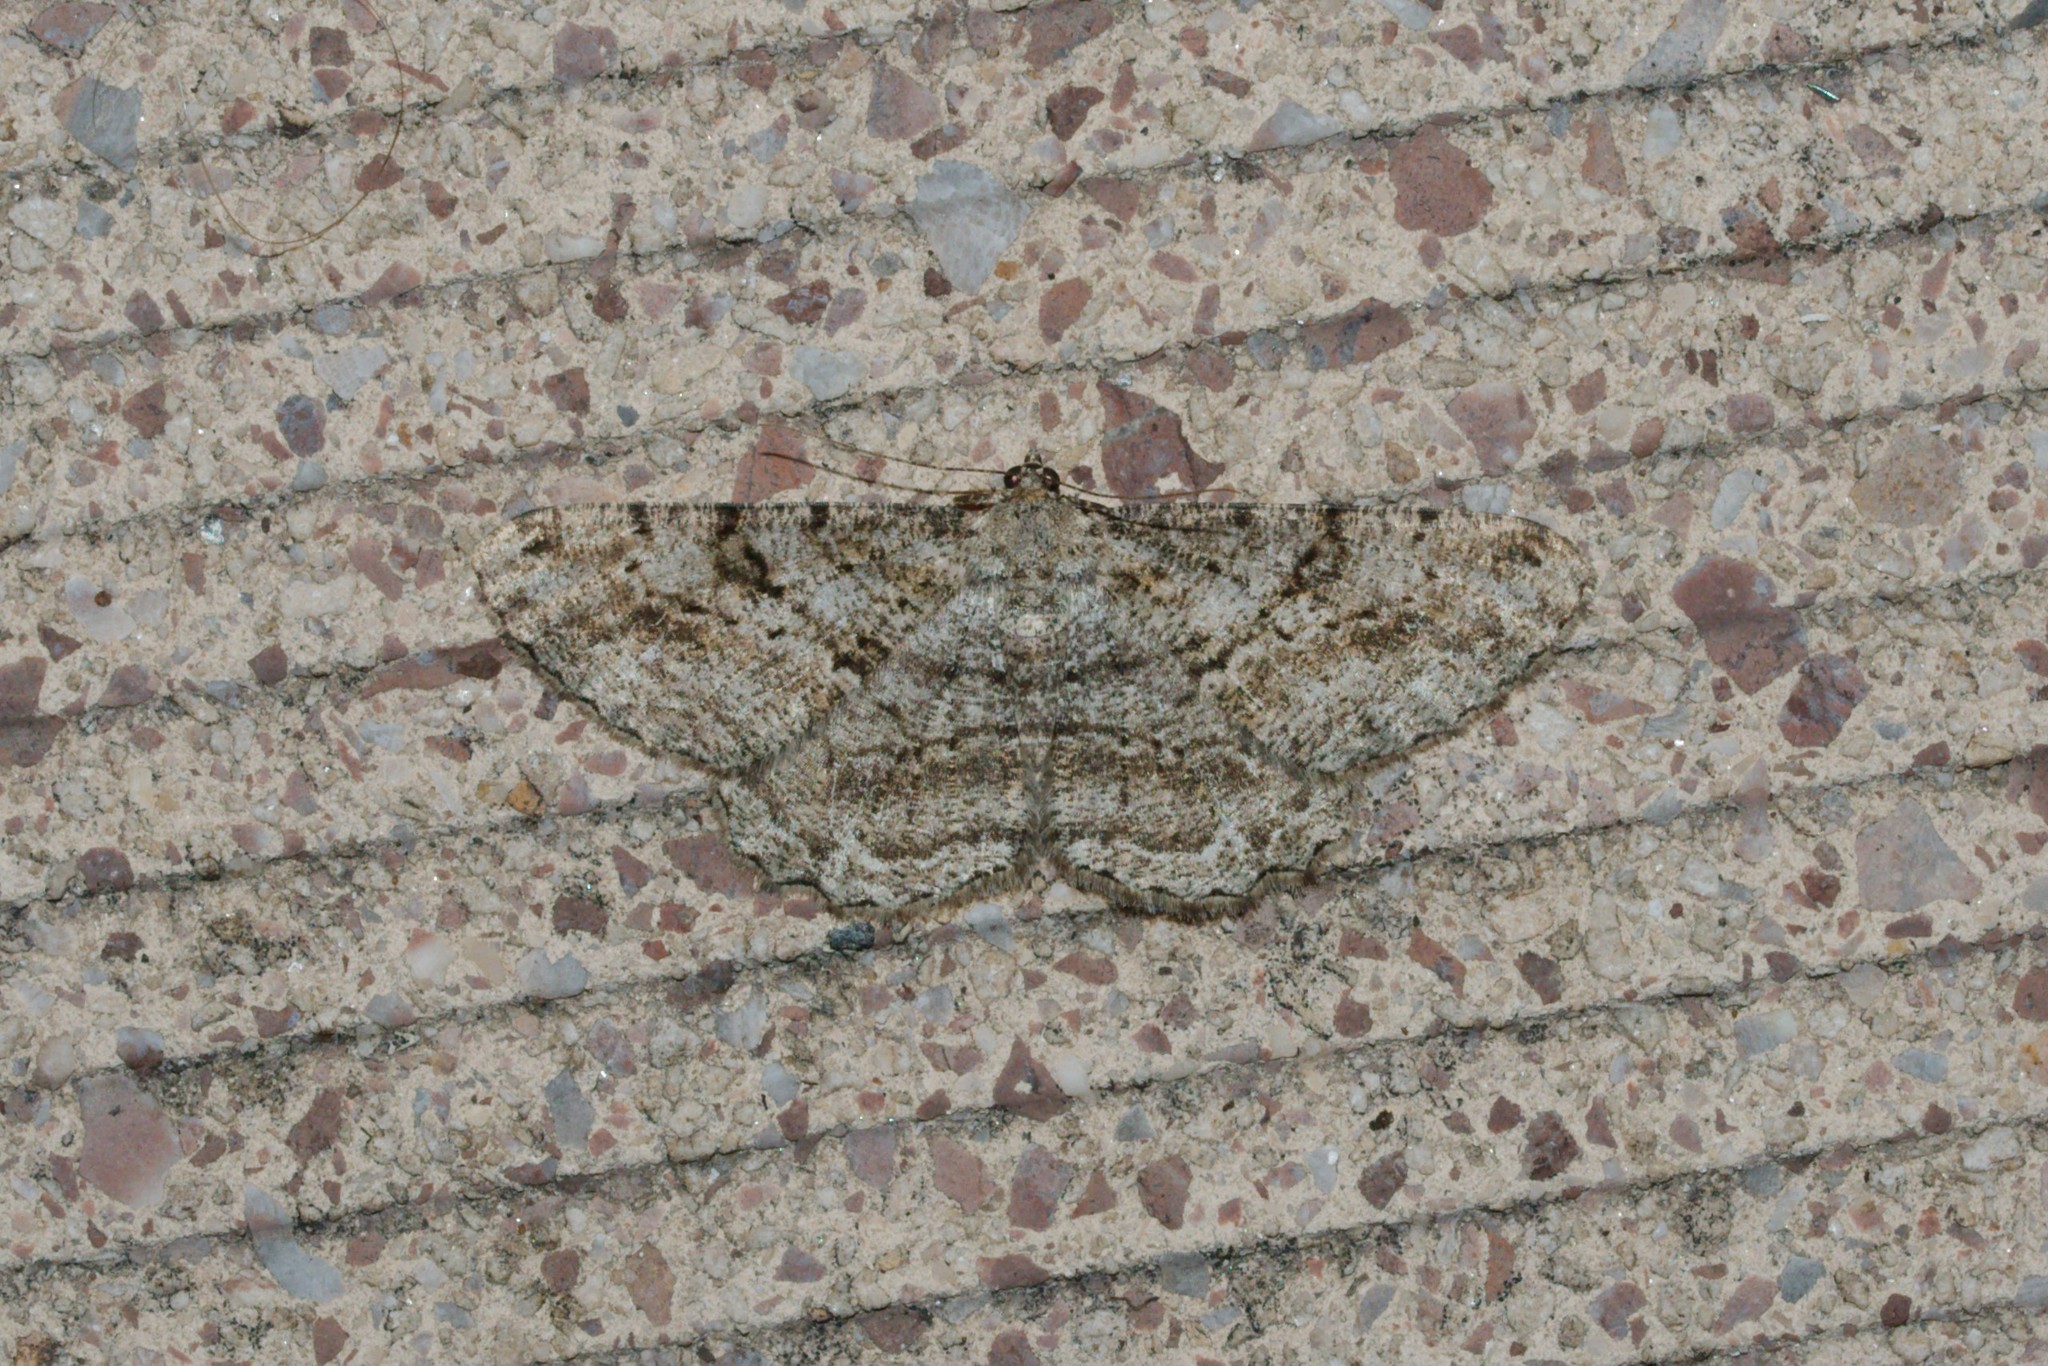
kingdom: Animalia
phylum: Arthropoda
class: Insecta
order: Lepidoptera
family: Geometridae
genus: Peribatodes
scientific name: Peribatodes rhomboidaria
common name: Willow beauty
